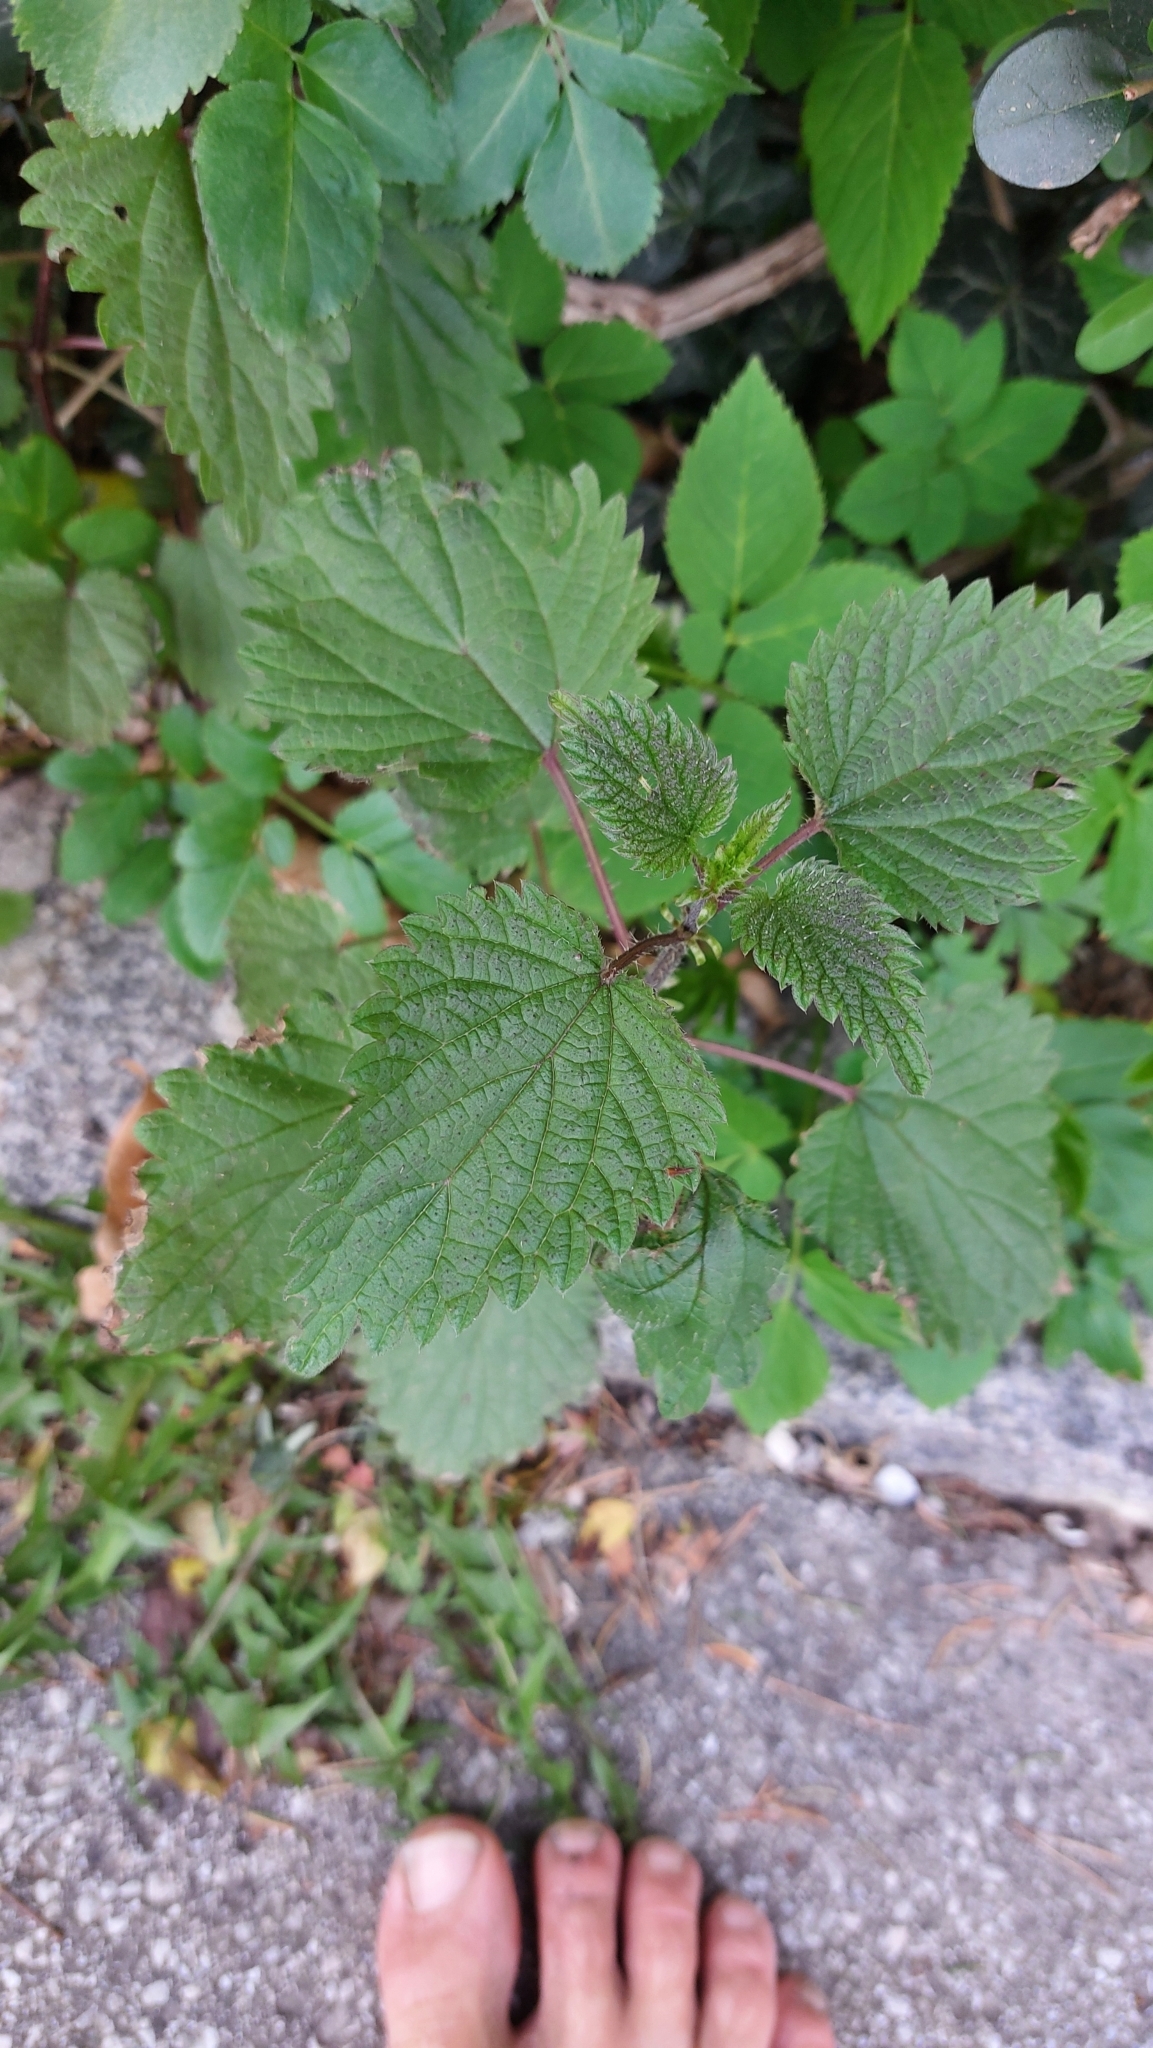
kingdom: Plantae
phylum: Tracheophyta
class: Magnoliopsida
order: Rosales
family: Urticaceae
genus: Urtica
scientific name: Urtica dioica
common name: Common nettle
